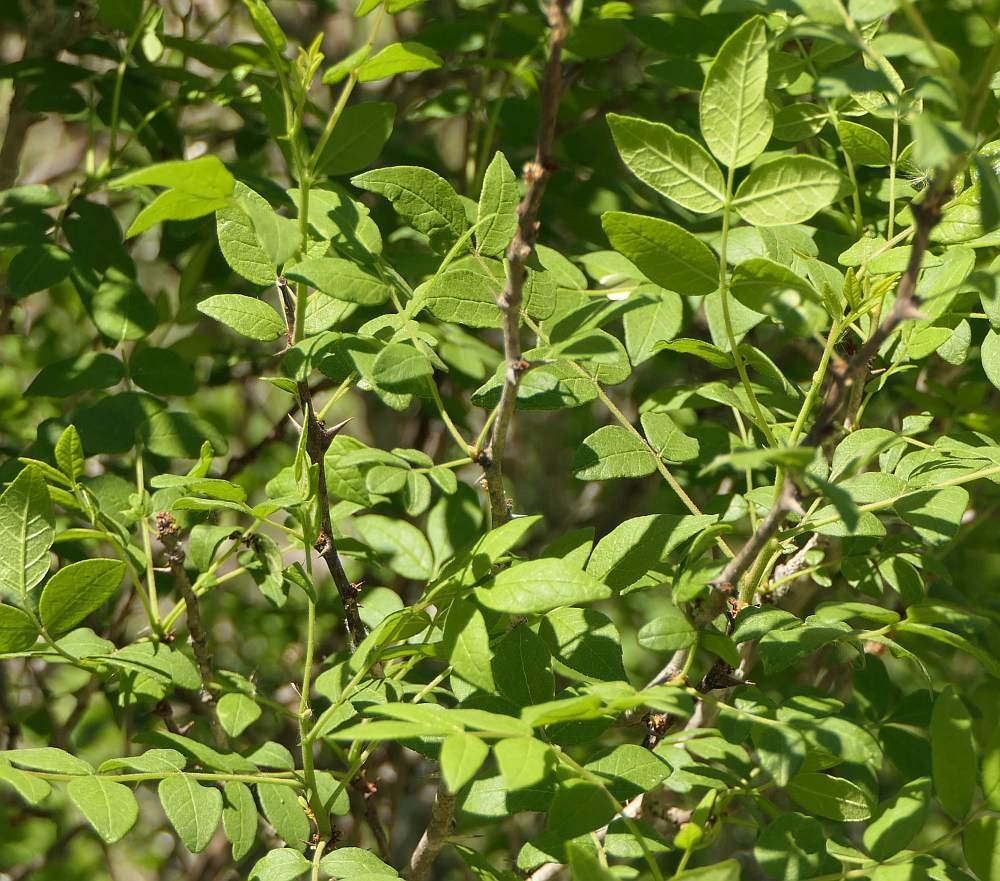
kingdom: Plantae
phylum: Tracheophyta
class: Magnoliopsida
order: Sapindales
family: Rutaceae
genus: Zanthoxylum
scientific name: Zanthoxylum americanum
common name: Northern prickly-ash
